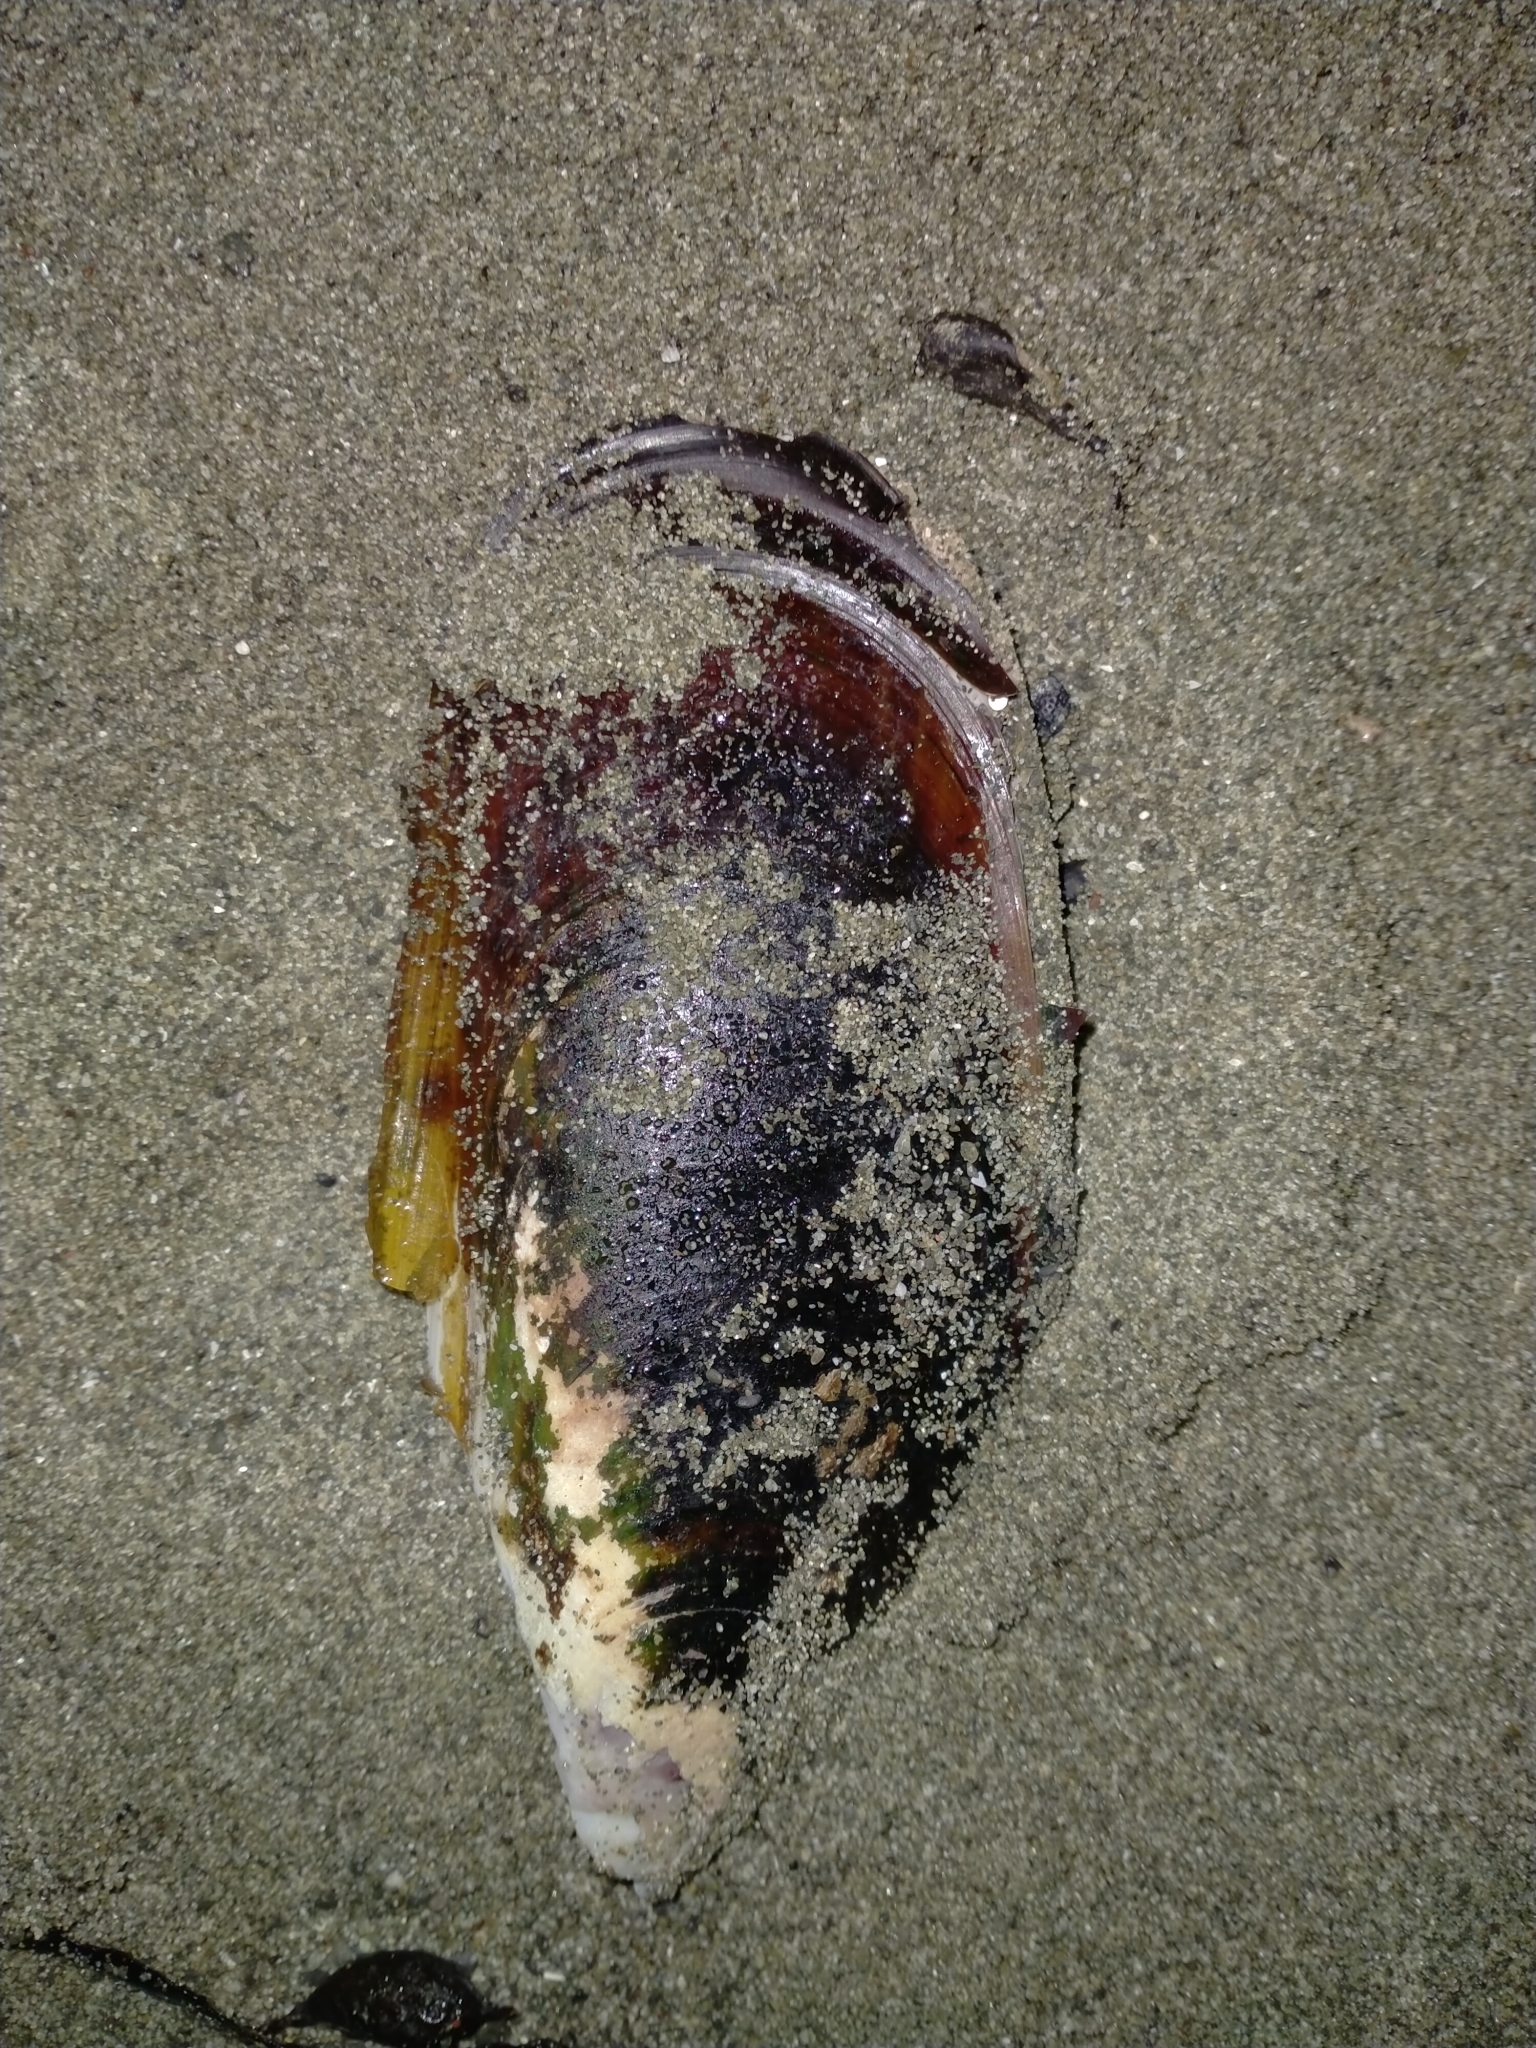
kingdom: Animalia
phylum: Mollusca
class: Bivalvia
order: Mytilida
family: Mytilidae
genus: Perna
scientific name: Perna canaliculus
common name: New zealand greenshelltm
